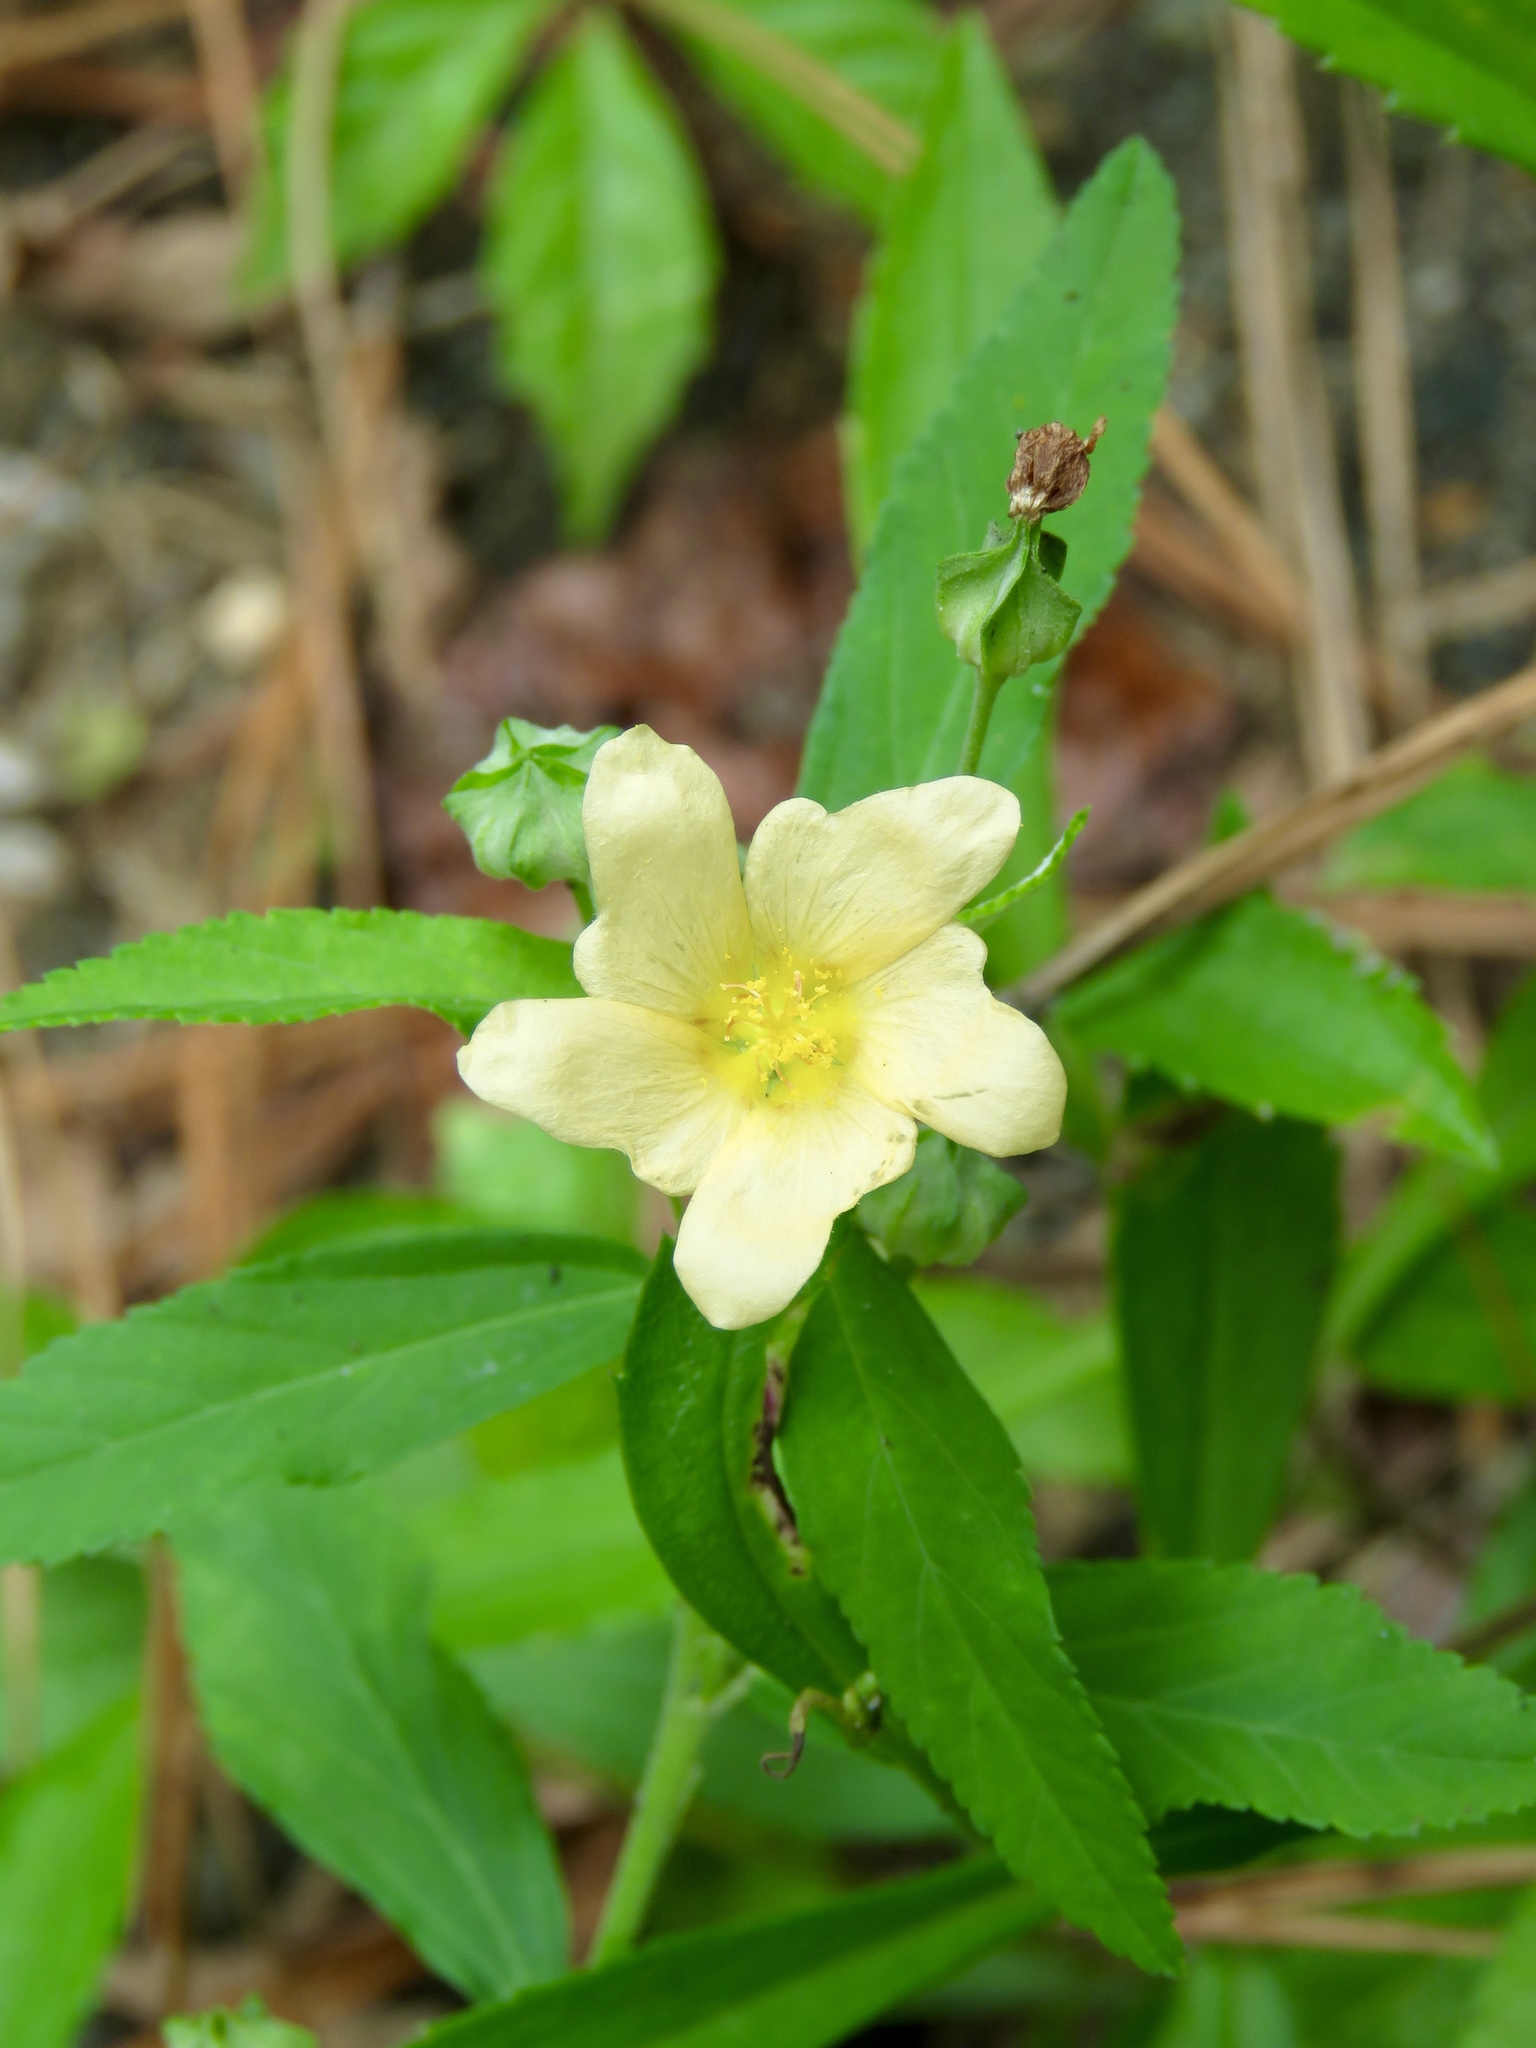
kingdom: Plantae
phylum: Tracheophyta
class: Magnoliopsida
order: Malvales
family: Malvaceae
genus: Sida
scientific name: Sida rhombifolia
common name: Queensland-hemp
